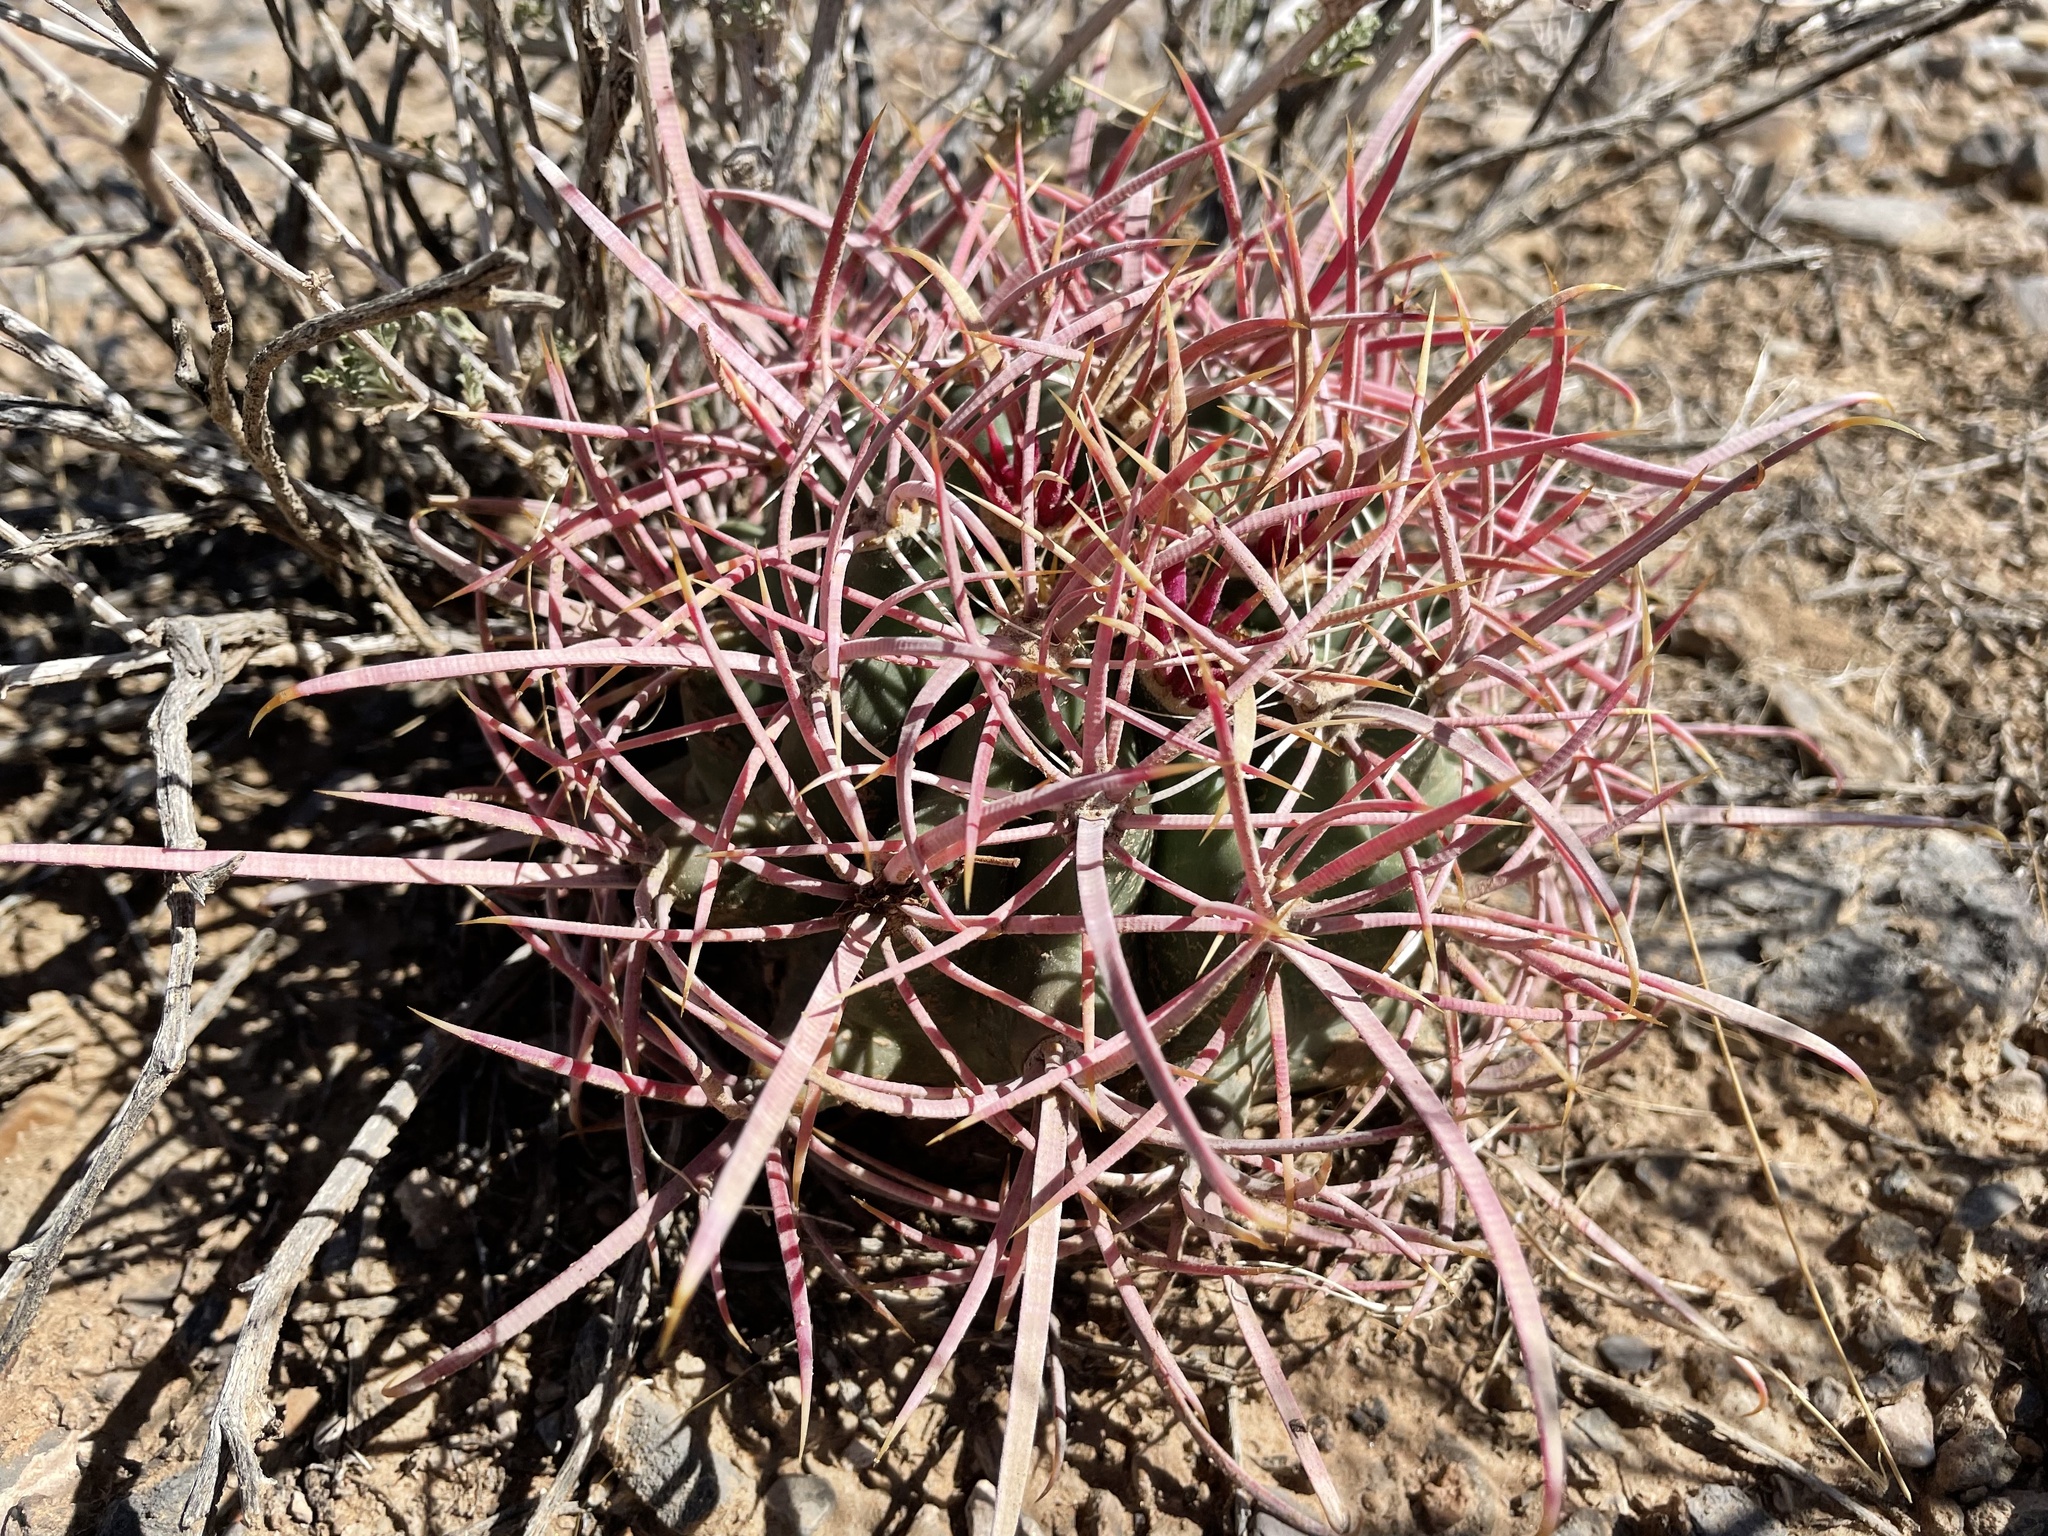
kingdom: Plantae
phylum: Tracheophyta
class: Magnoliopsida
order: Caryophyllales
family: Cactaceae
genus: Ferocactus
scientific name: Ferocactus cylindraceus
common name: California barrel cactus
